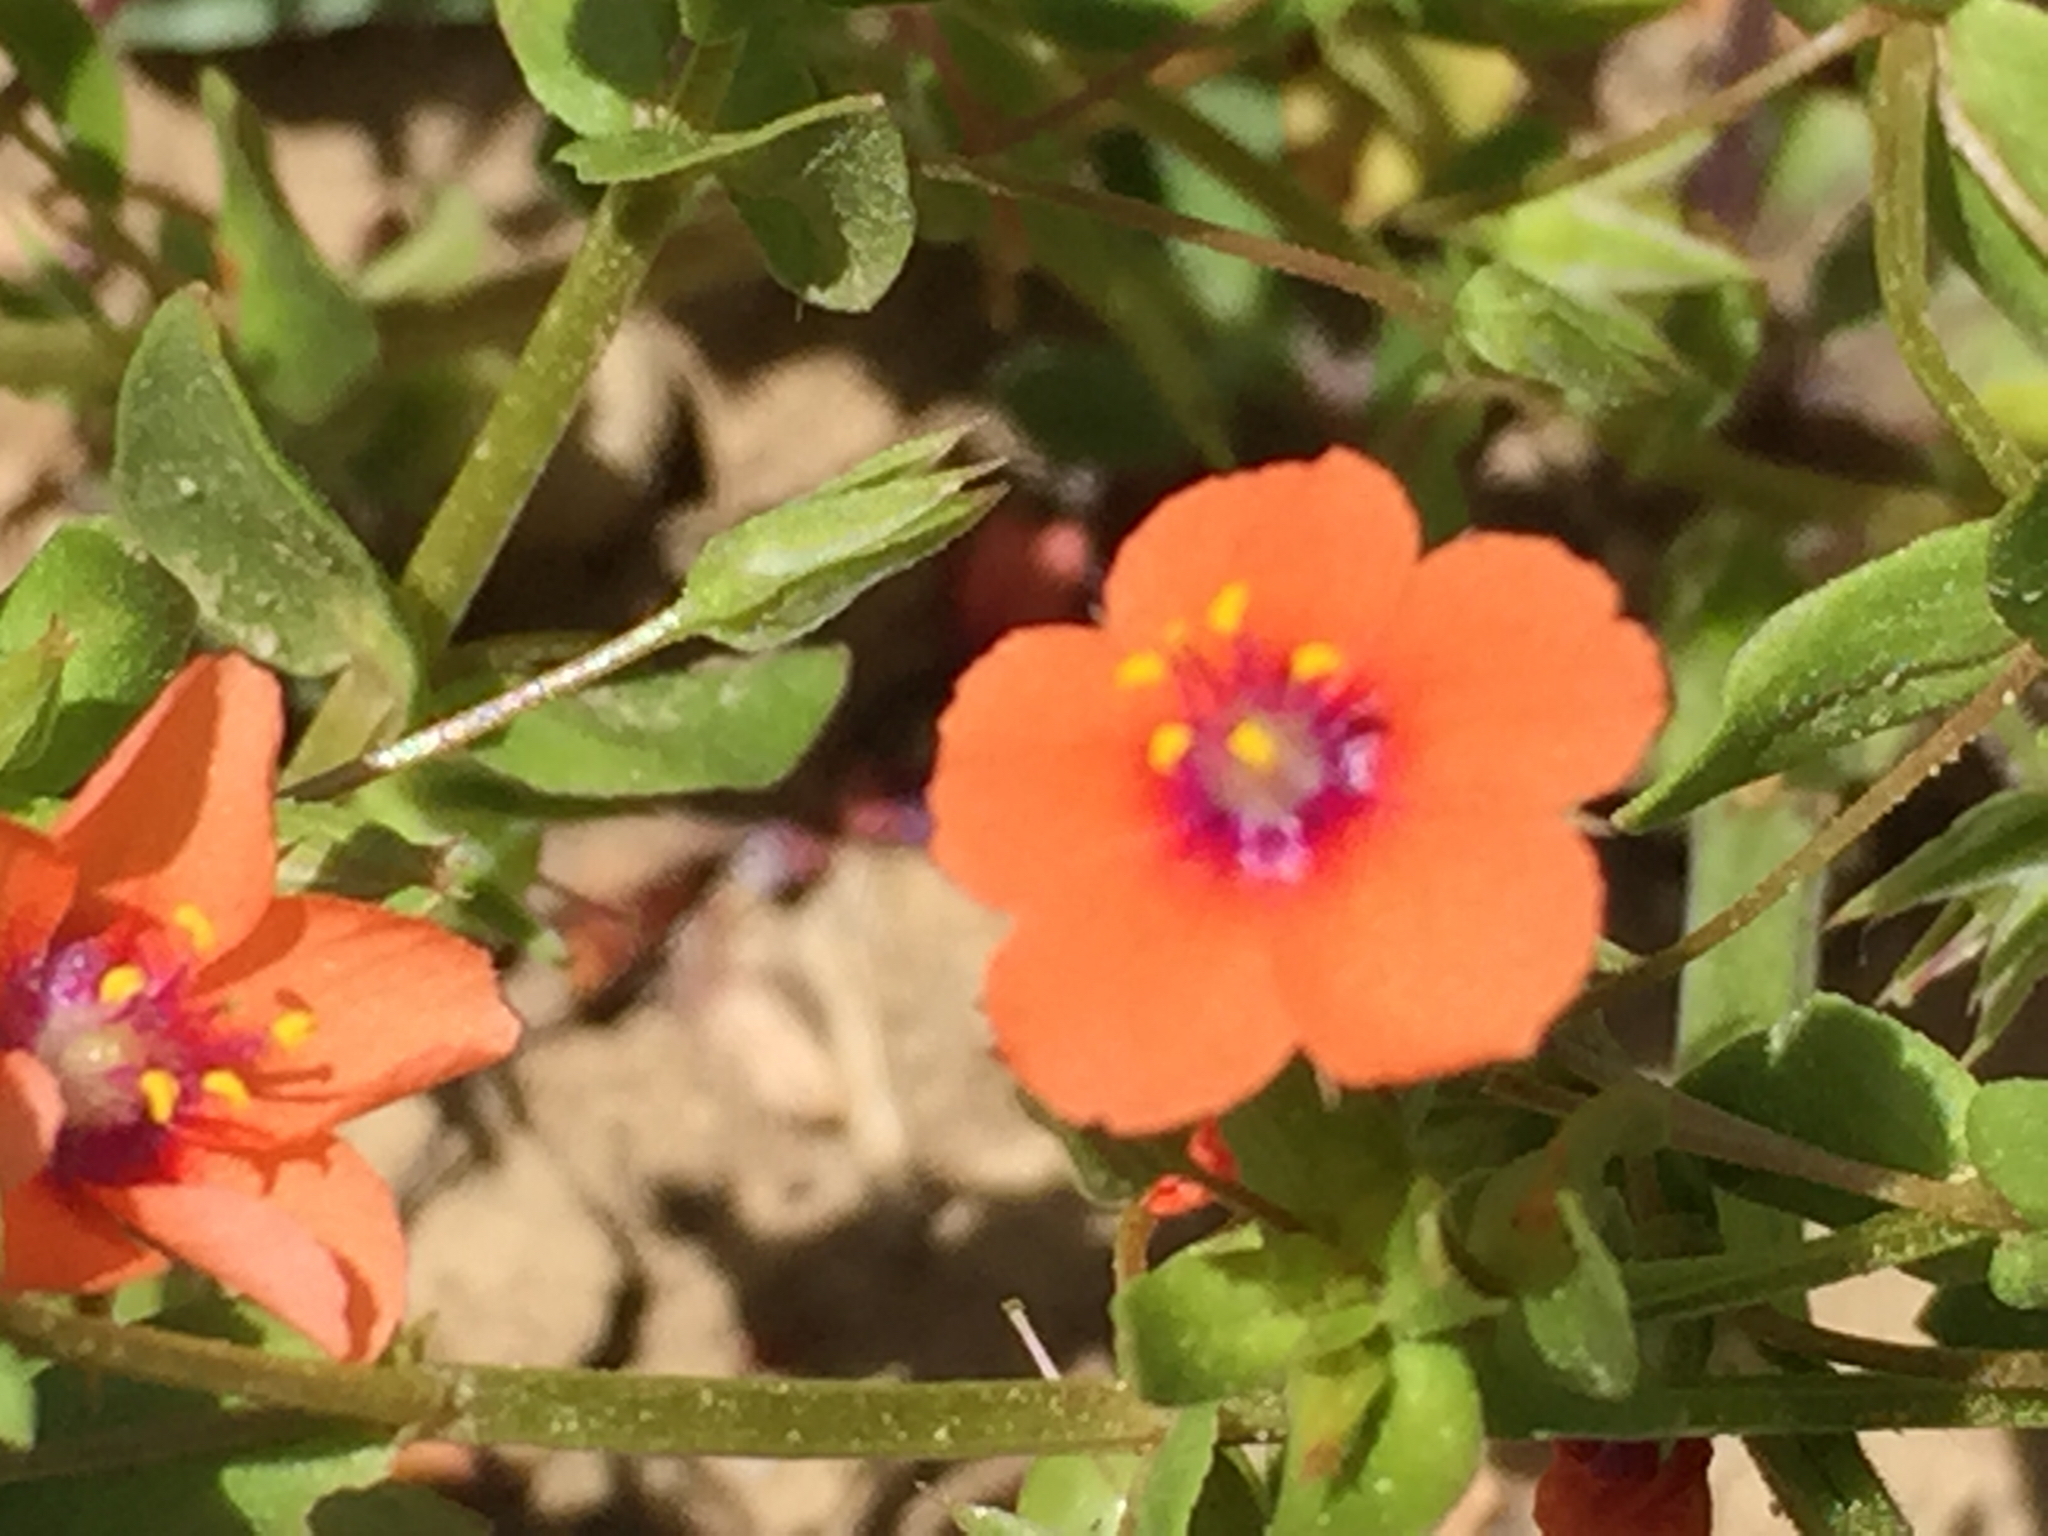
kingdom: Plantae
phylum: Tracheophyta
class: Magnoliopsida
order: Ericales
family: Primulaceae
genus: Lysimachia
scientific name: Lysimachia arvensis
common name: Scarlet pimpernel
